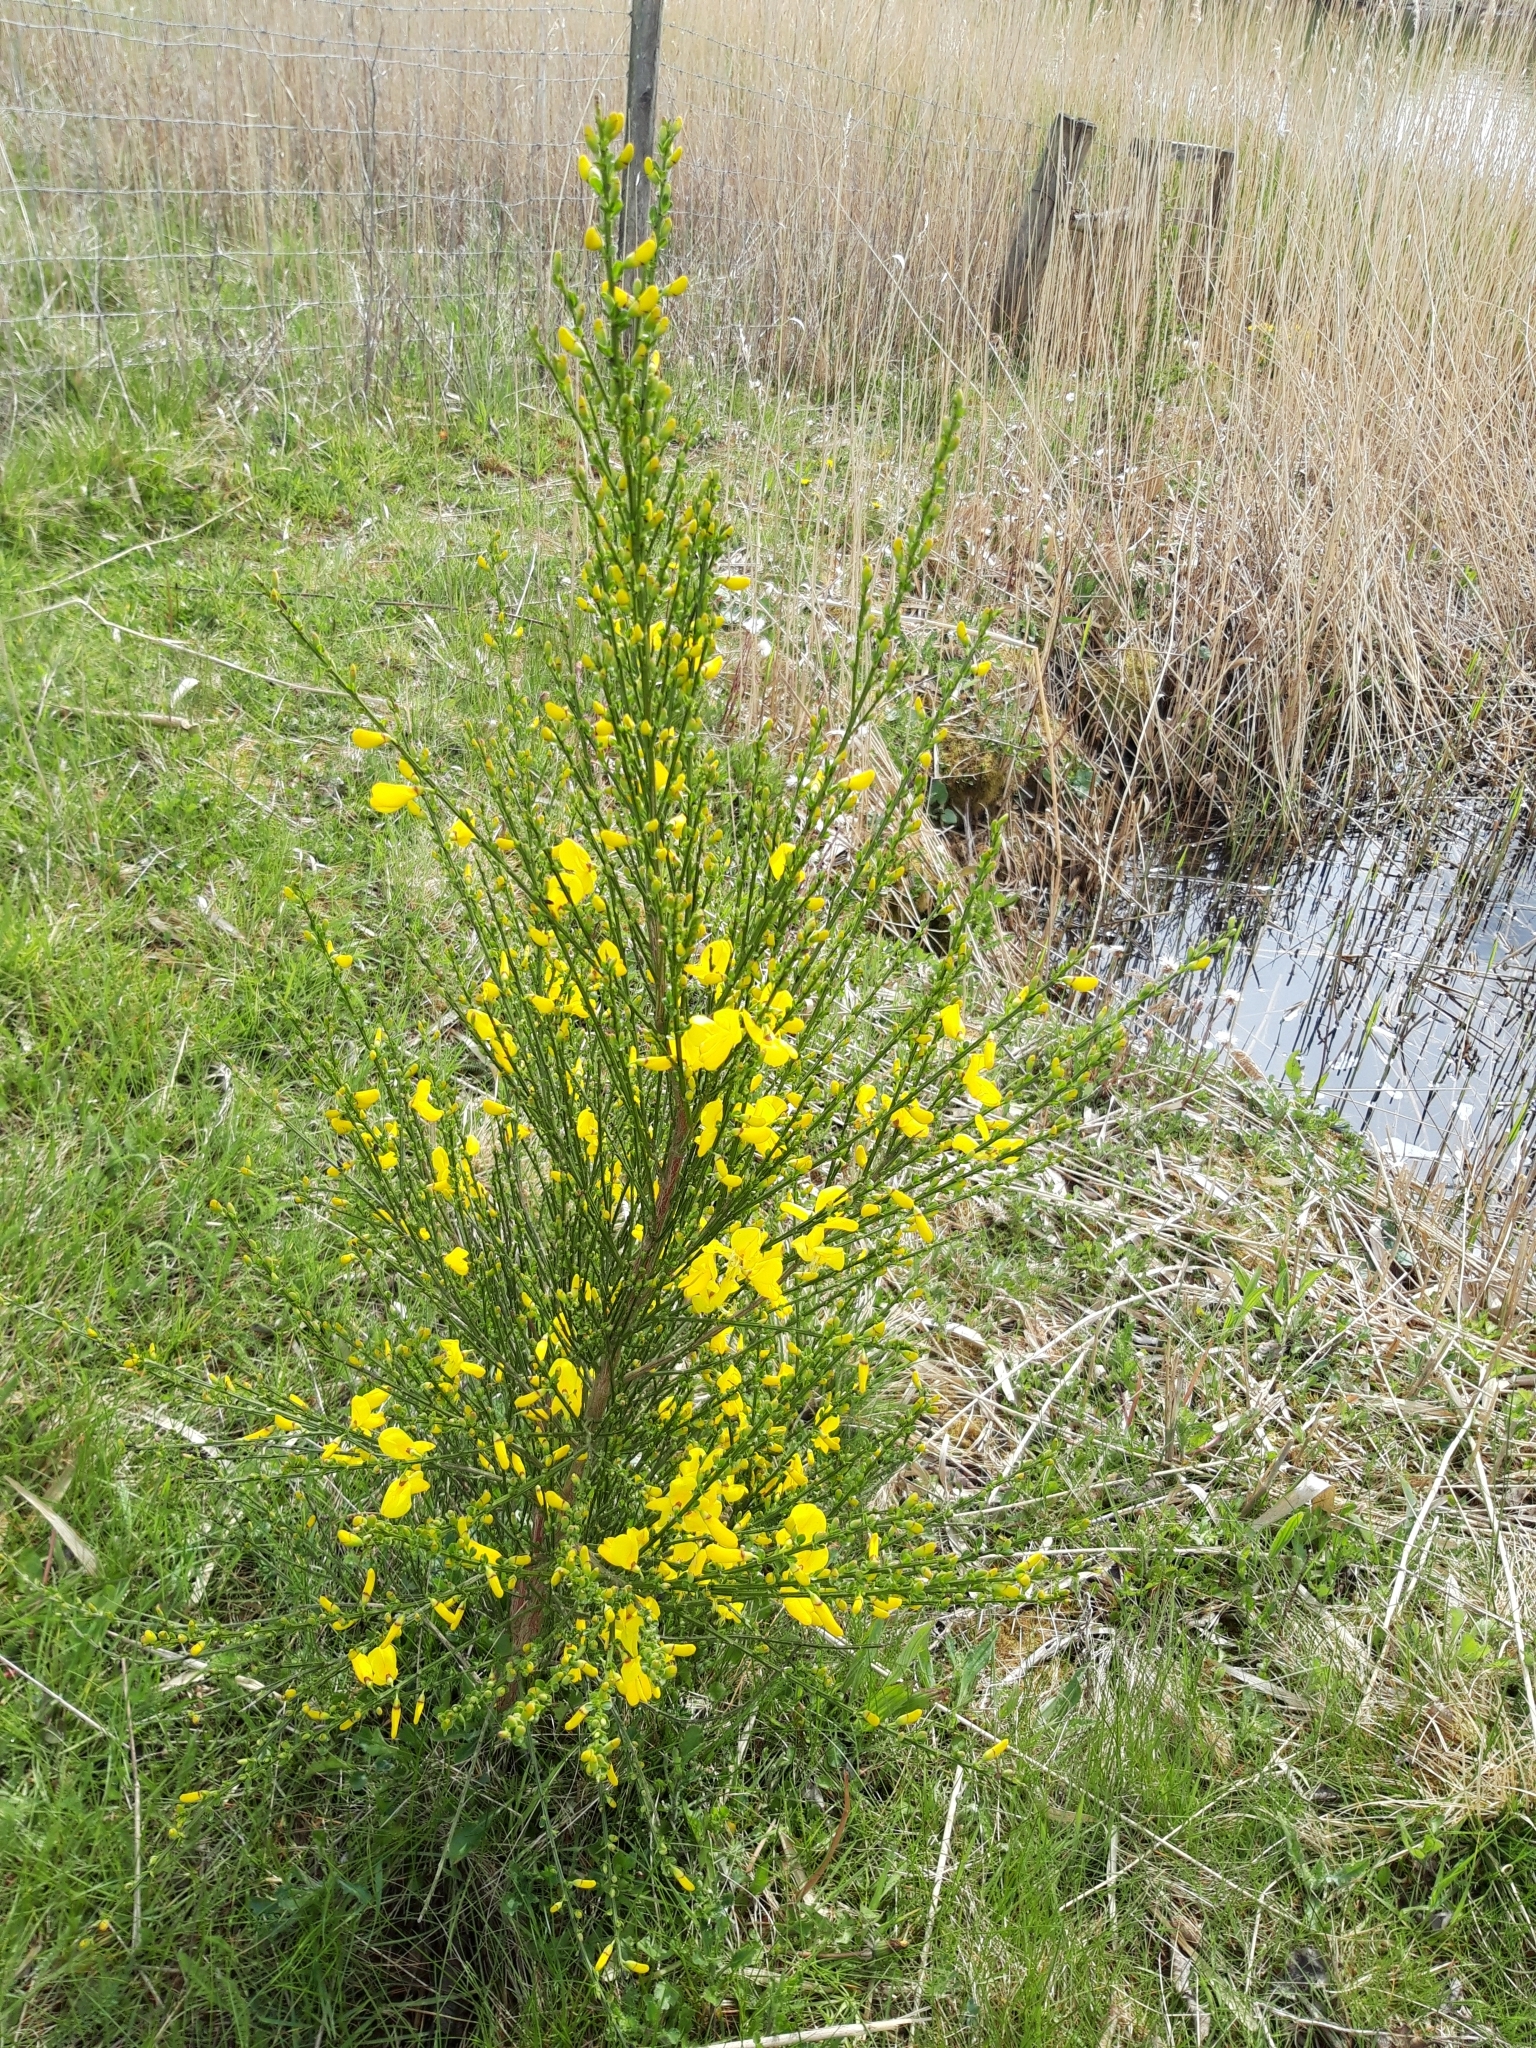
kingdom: Plantae
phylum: Tracheophyta
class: Magnoliopsida
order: Fabales
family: Fabaceae
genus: Cytisus
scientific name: Cytisus scoparius
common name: Scotch broom
